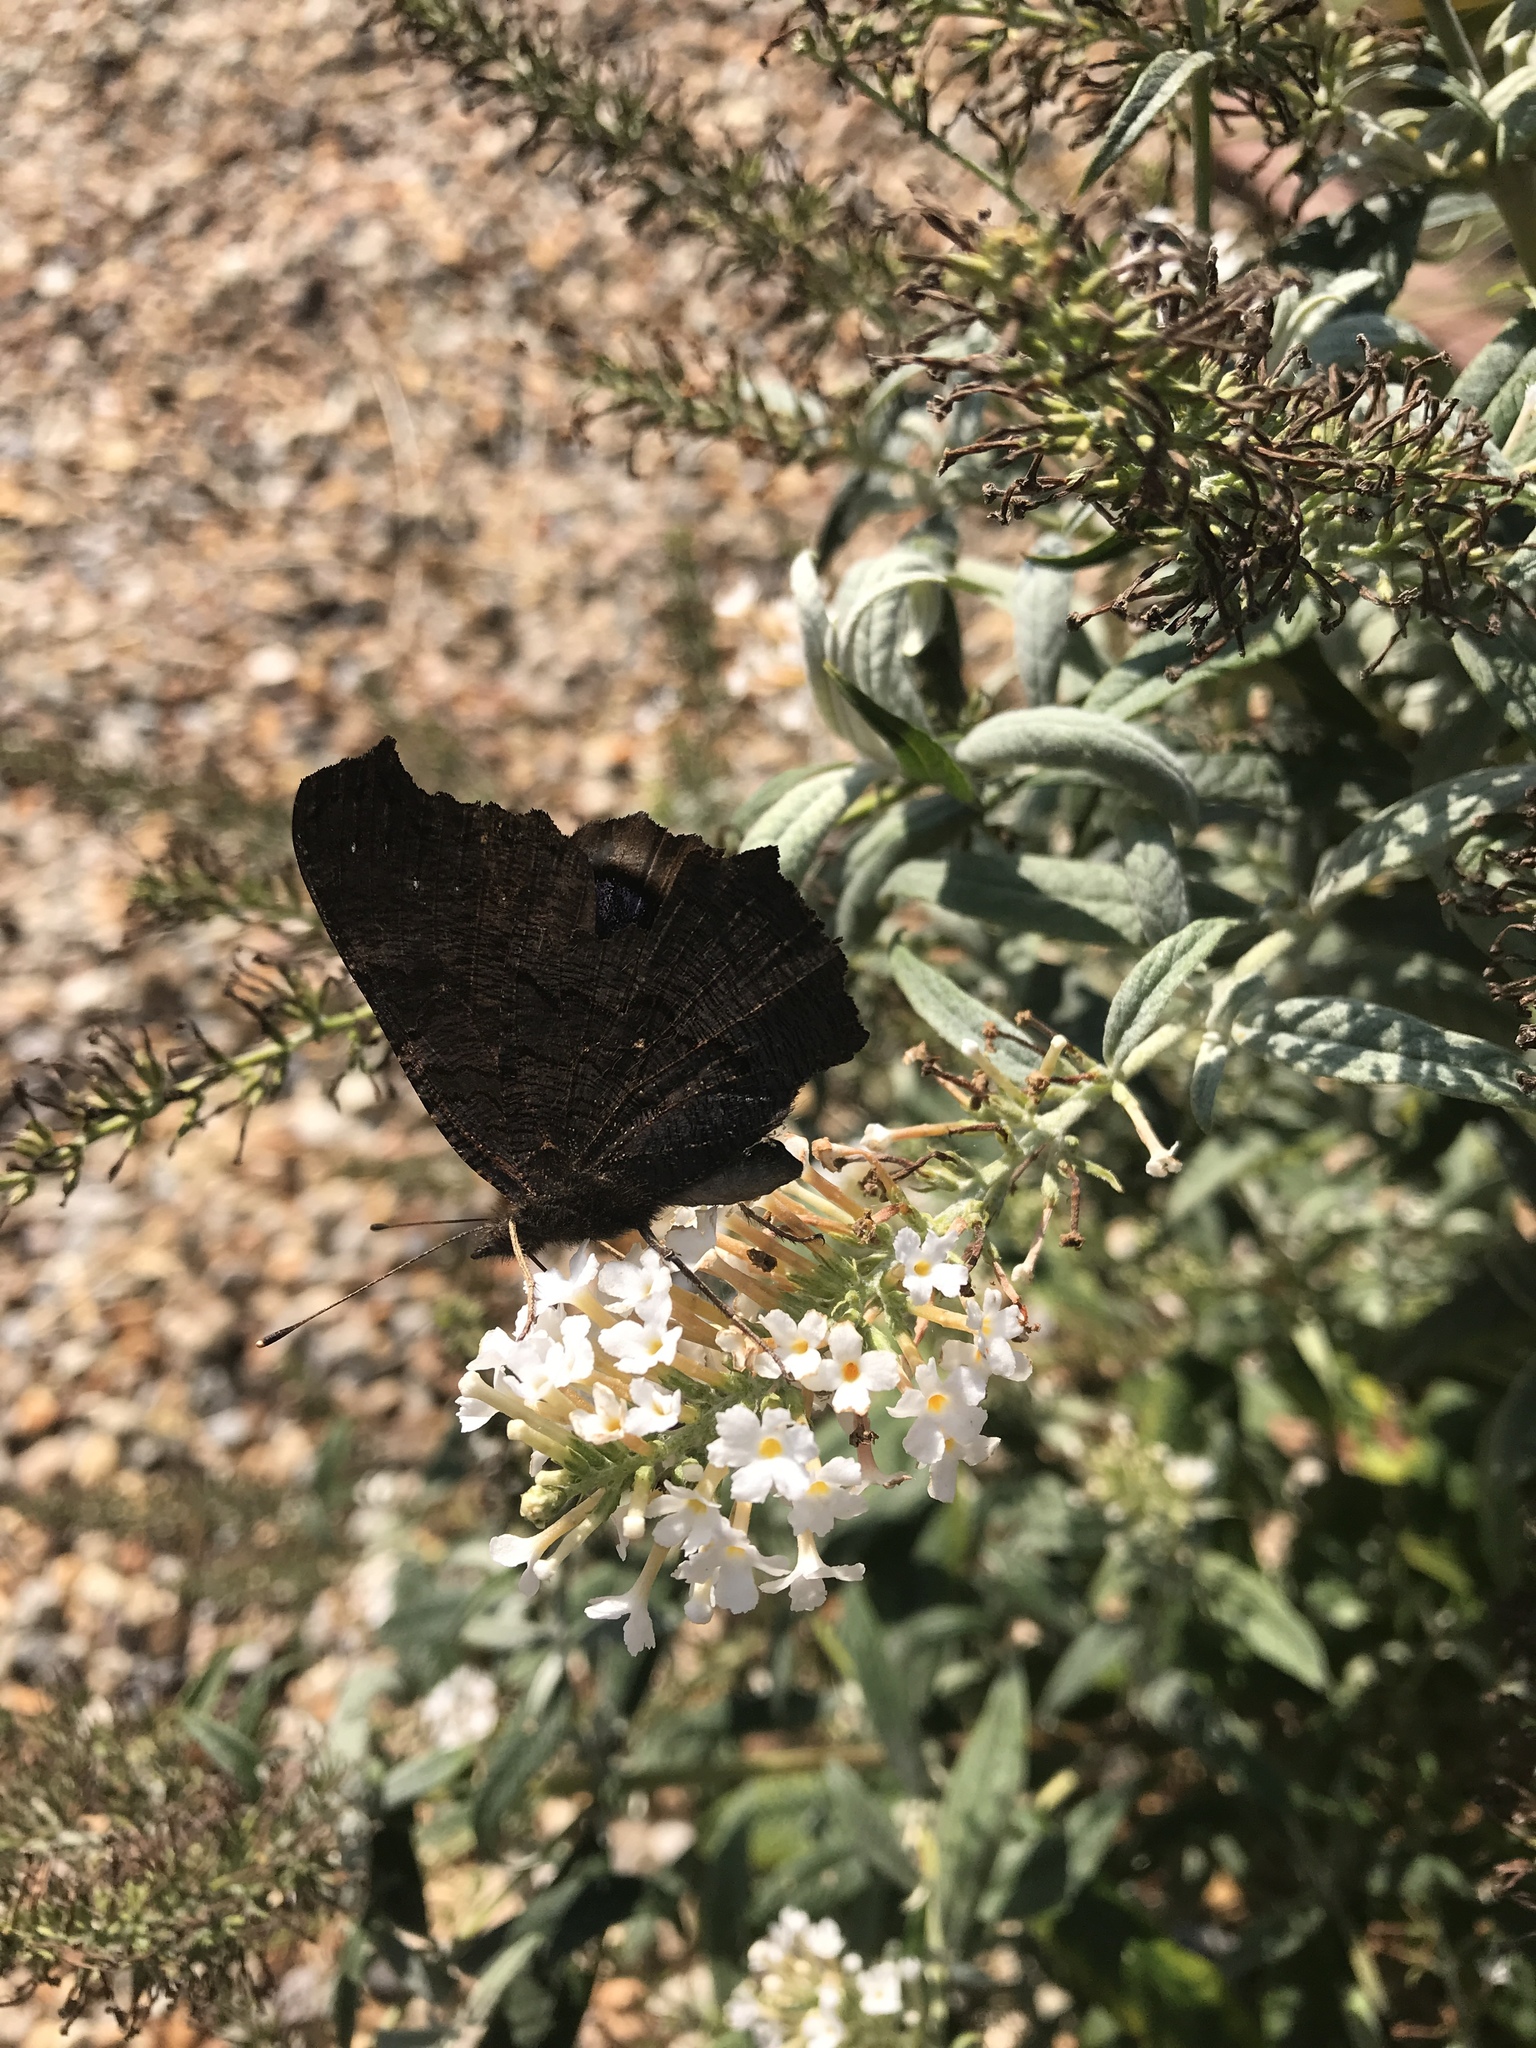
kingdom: Animalia
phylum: Arthropoda
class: Insecta
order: Lepidoptera
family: Nymphalidae
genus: Aglais
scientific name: Aglais io
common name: Peacock
